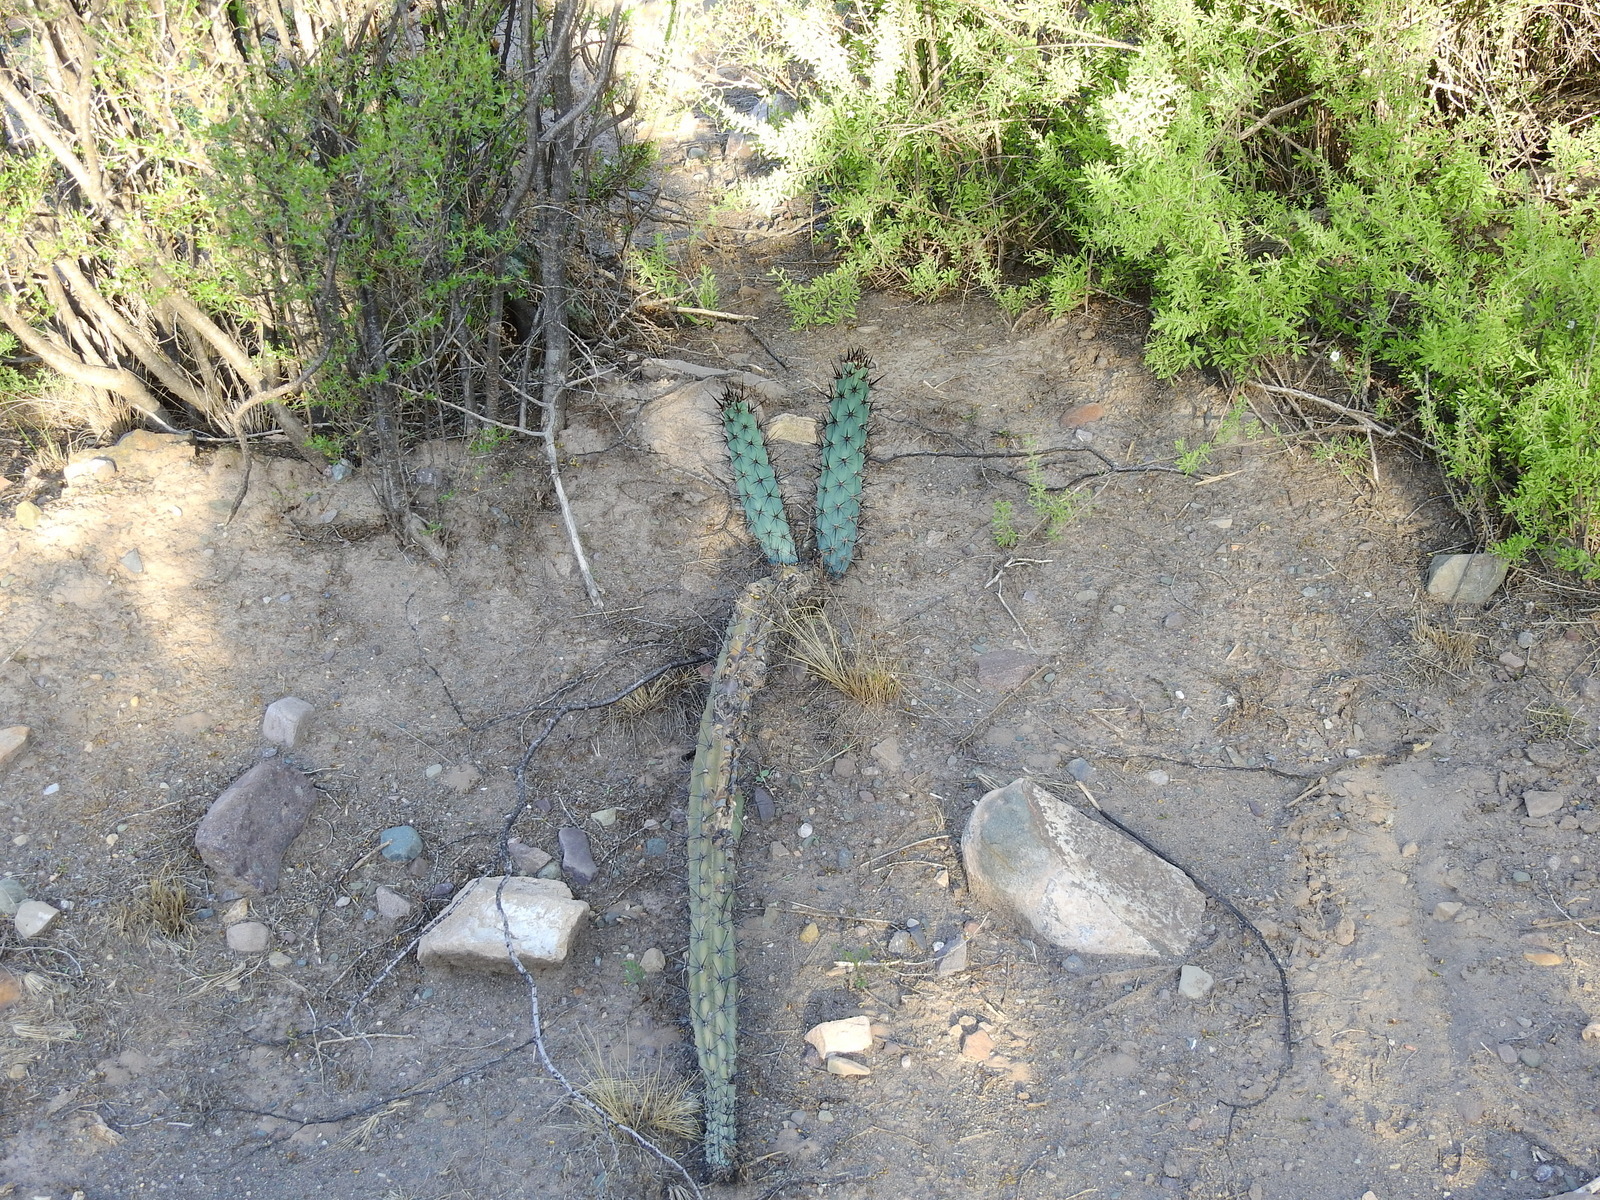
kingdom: Plantae
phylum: Tracheophyta
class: Magnoliopsida
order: Caryophyllales
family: Cactaceae
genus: Cereus
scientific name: Cereus aethiops
